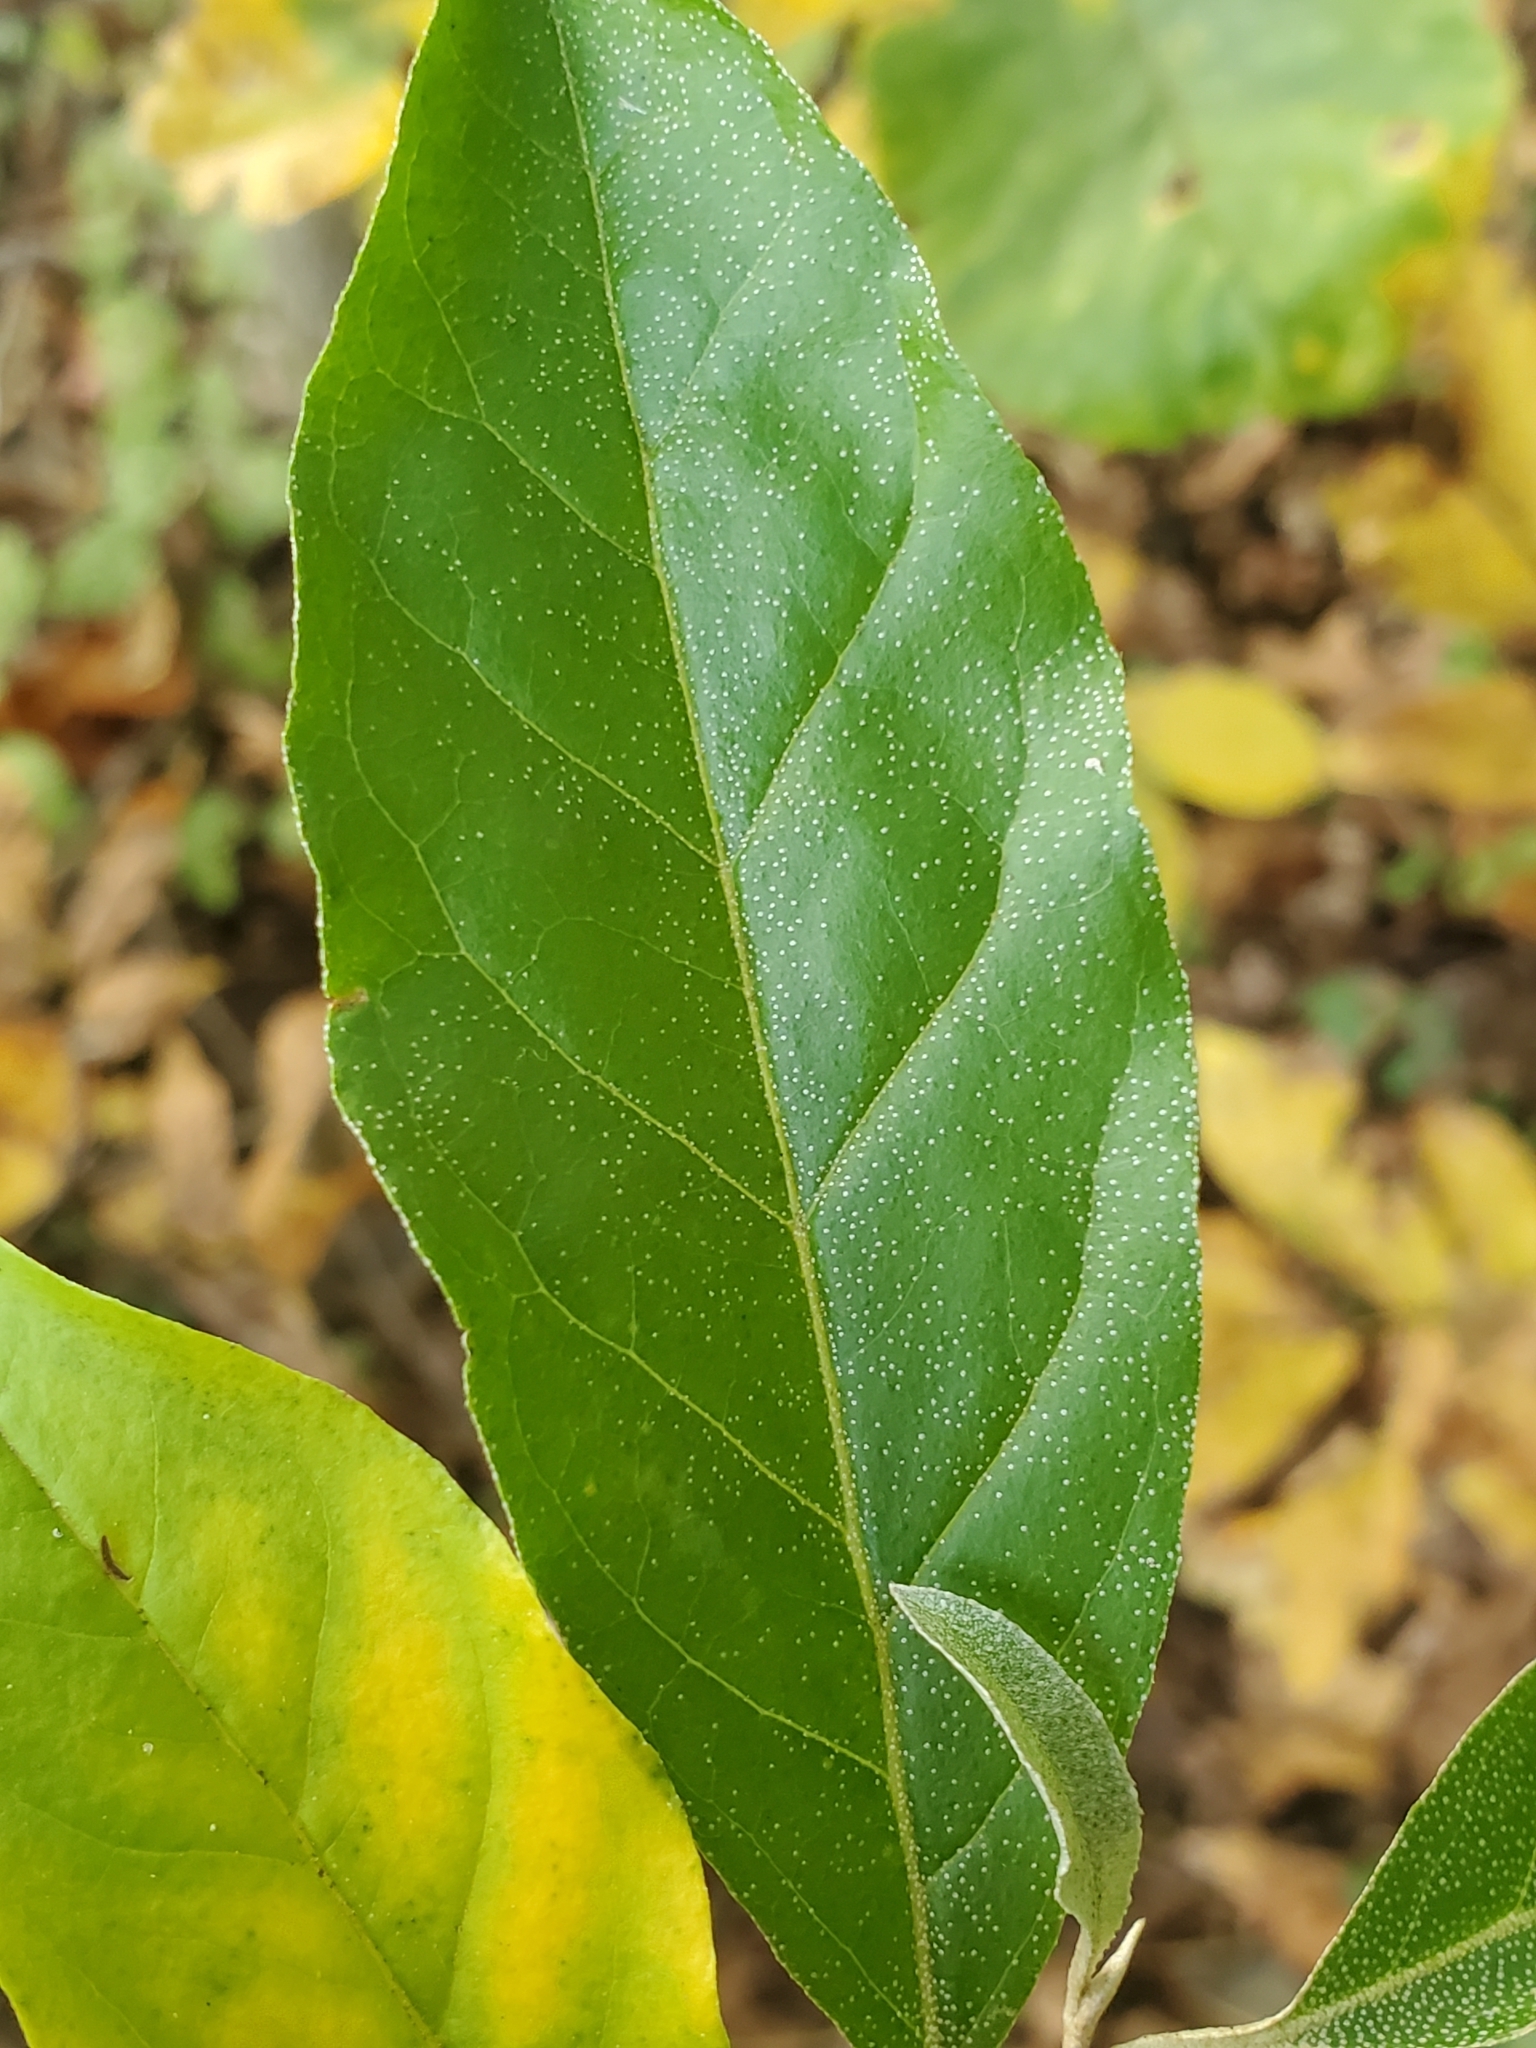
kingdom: Plantae
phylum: Tracheophyta
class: Magnoliopsida
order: Rosales
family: Elaeagnaceae
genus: Elaeagnus
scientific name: Elaeagnus umbellata
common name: Autumn olive
